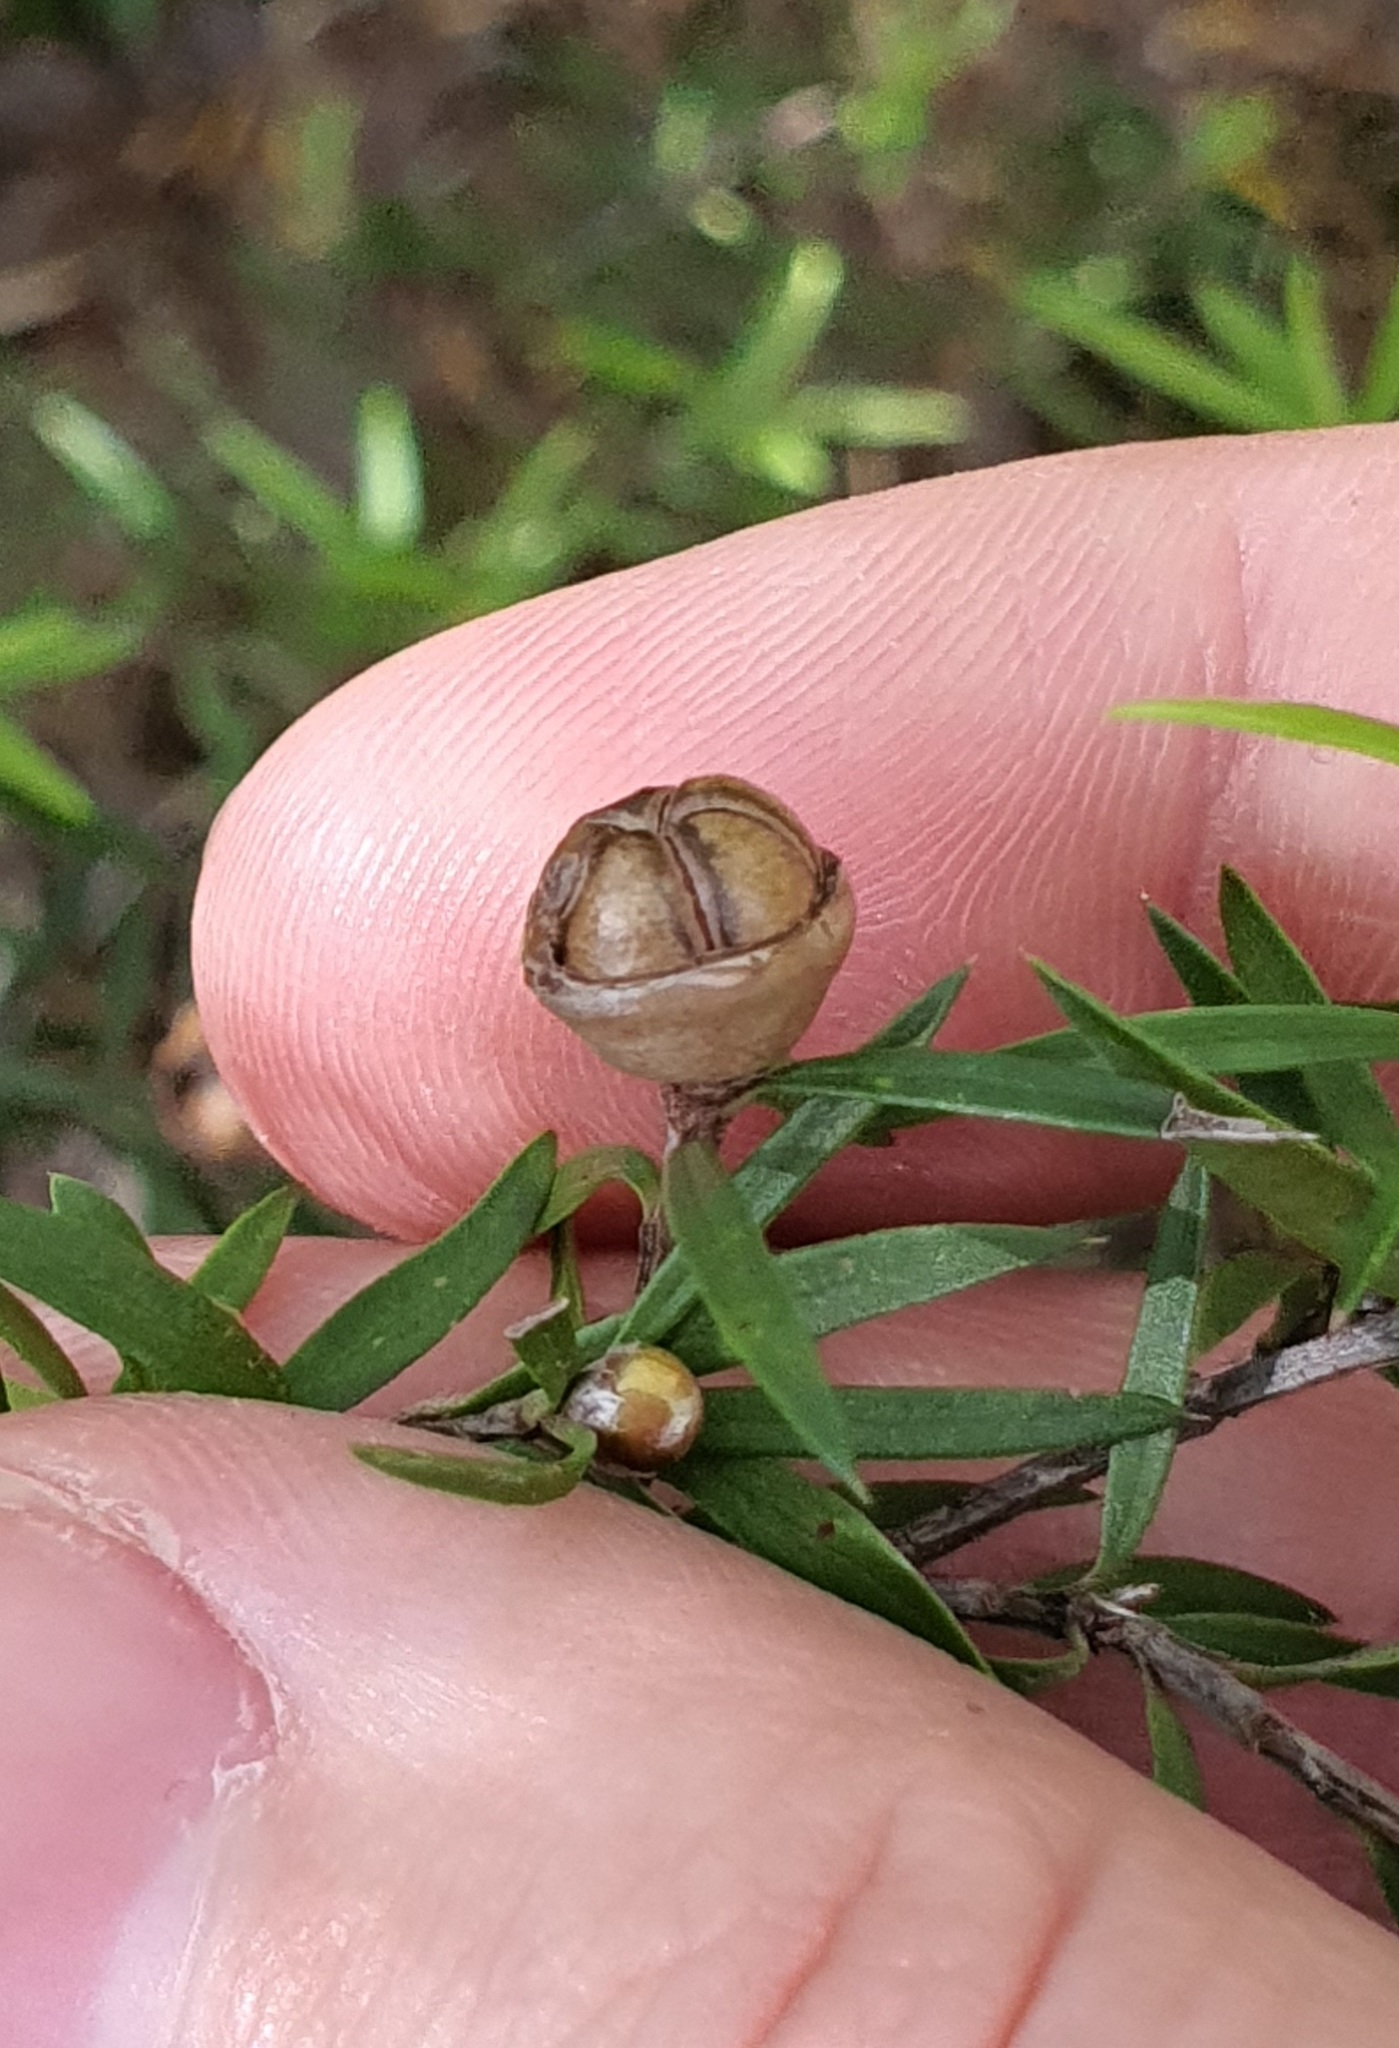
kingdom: Plantae
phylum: Tracheophyta
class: Magnoliopsida
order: Myrtales
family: Myrtaceae
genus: Leptospermum
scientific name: Leptospermum scoparium
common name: Broom tea-tree
